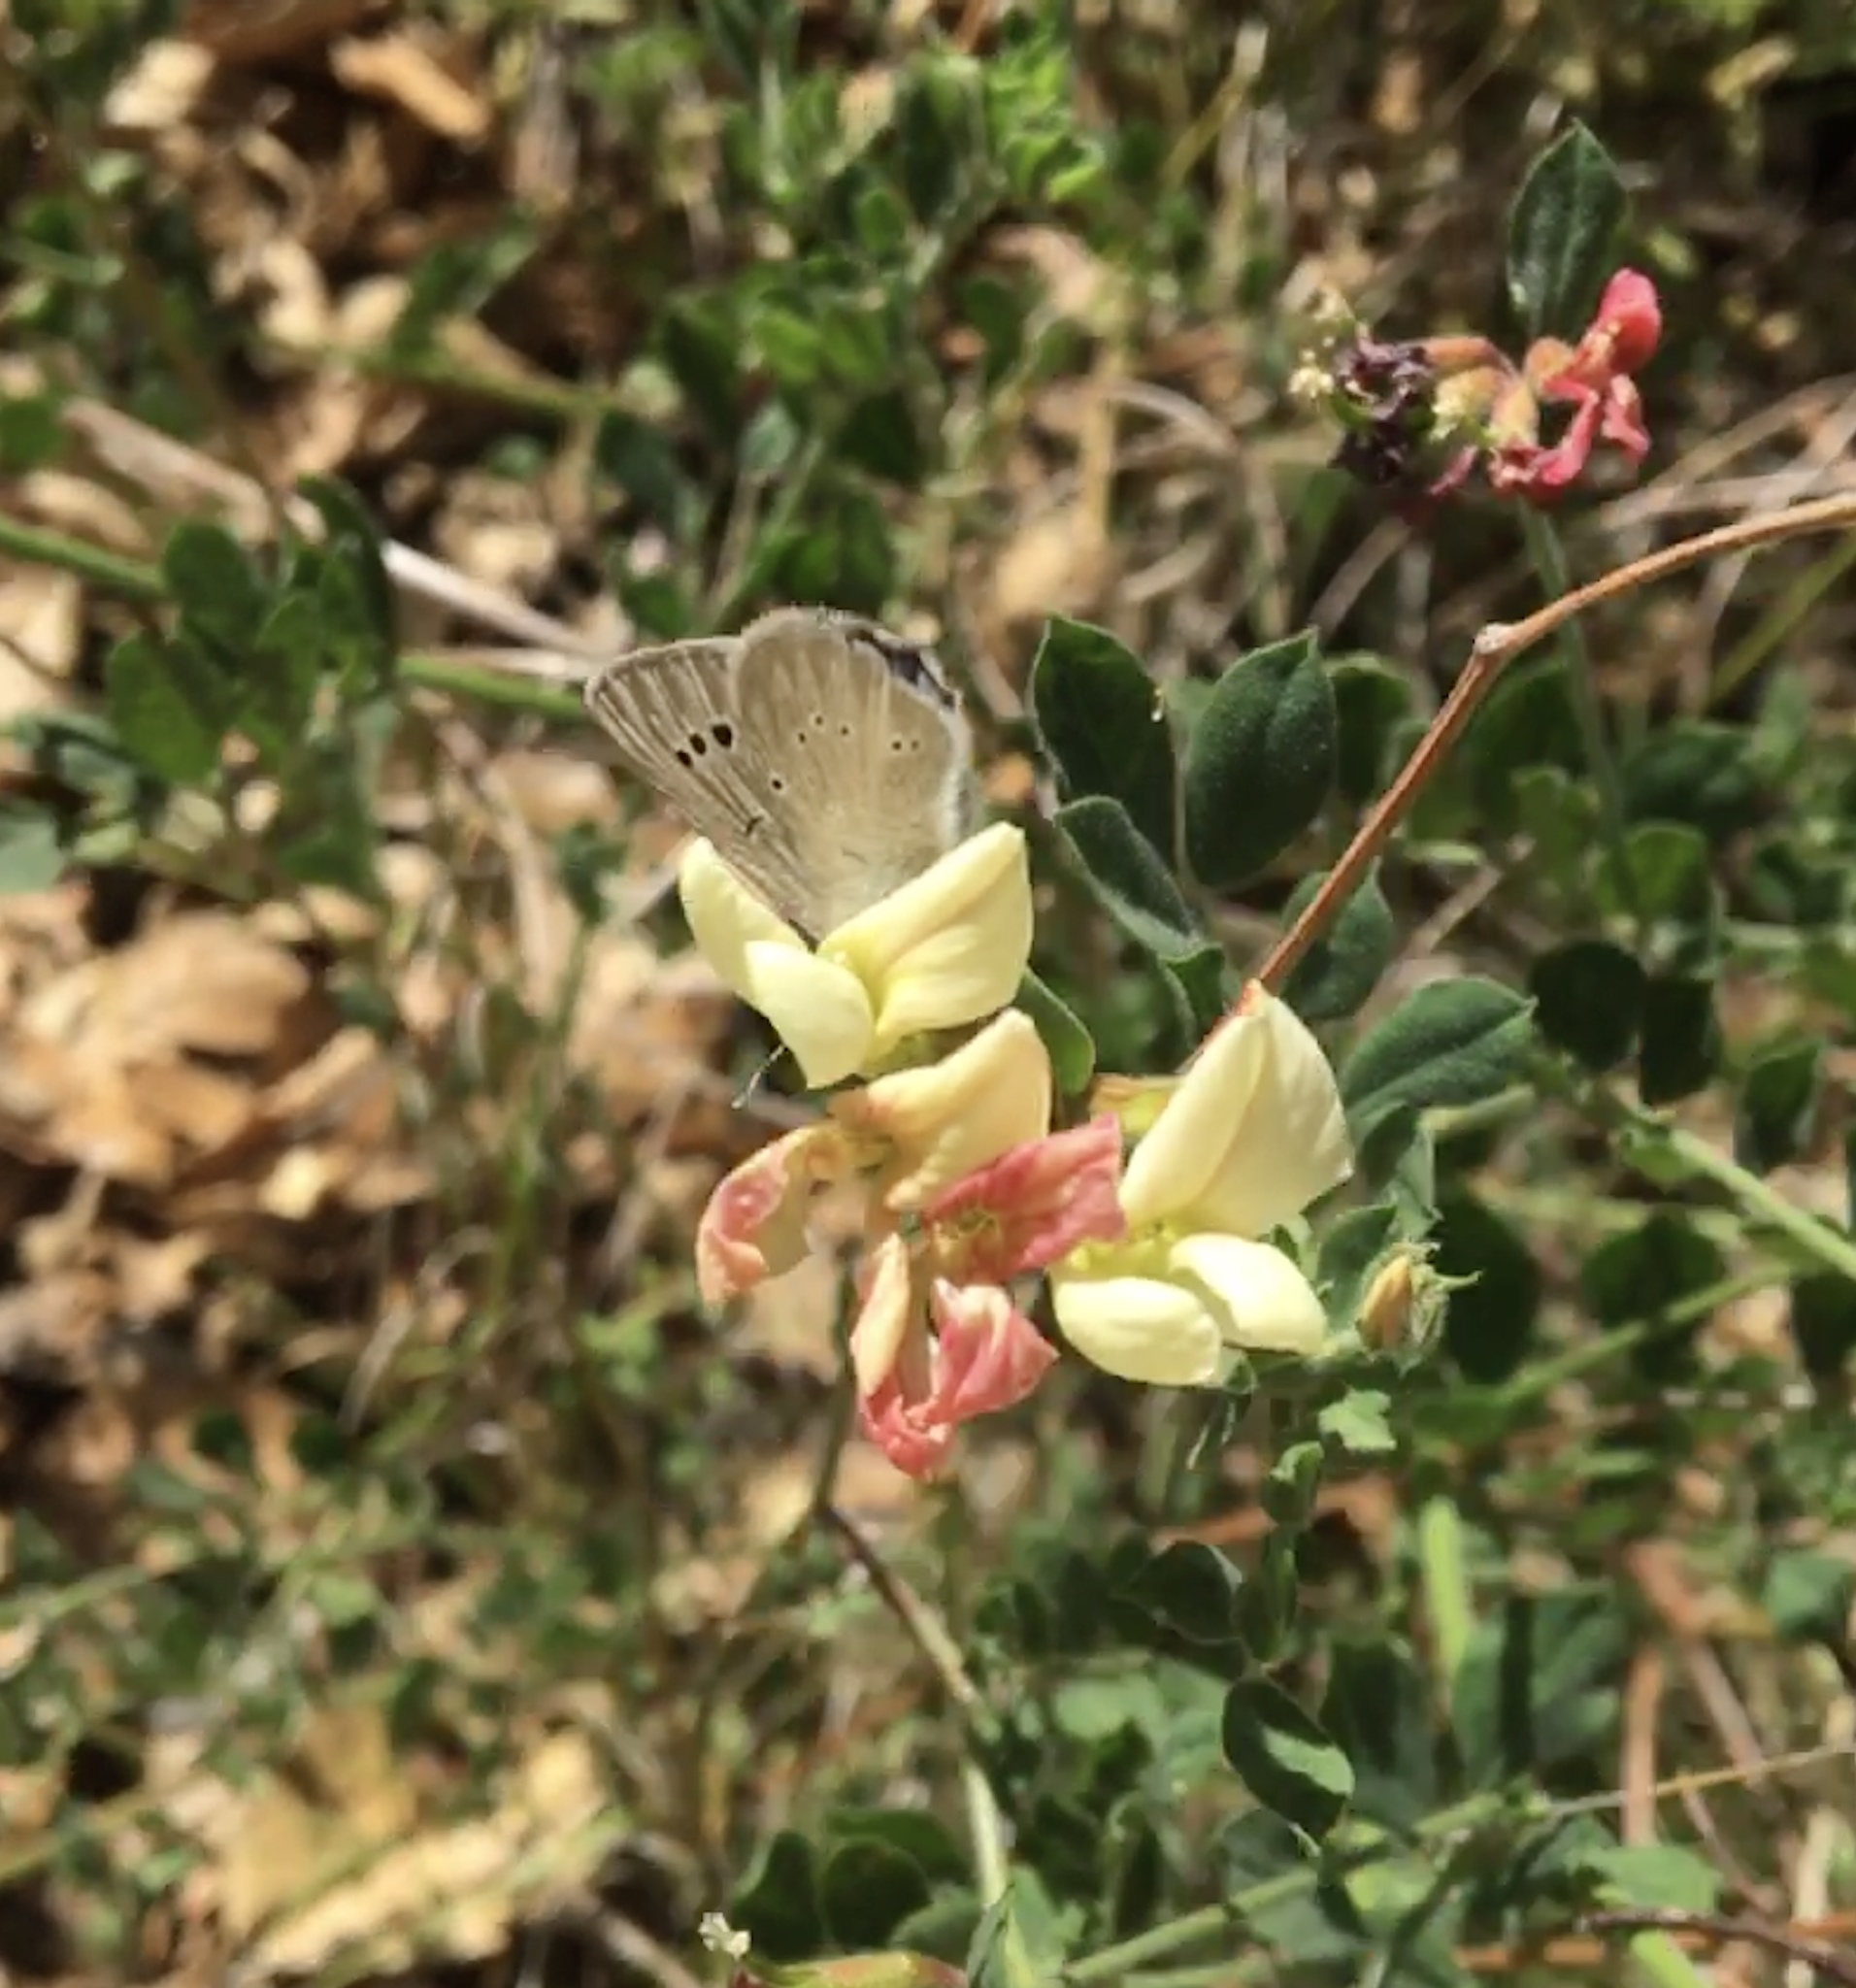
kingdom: Animalia
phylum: Arthropoda
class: Insecta
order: Lepidoptera
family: Lycaenidae
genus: Glaucopsyche
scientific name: Glaucopsyche lygdamus
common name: Silvery blue
